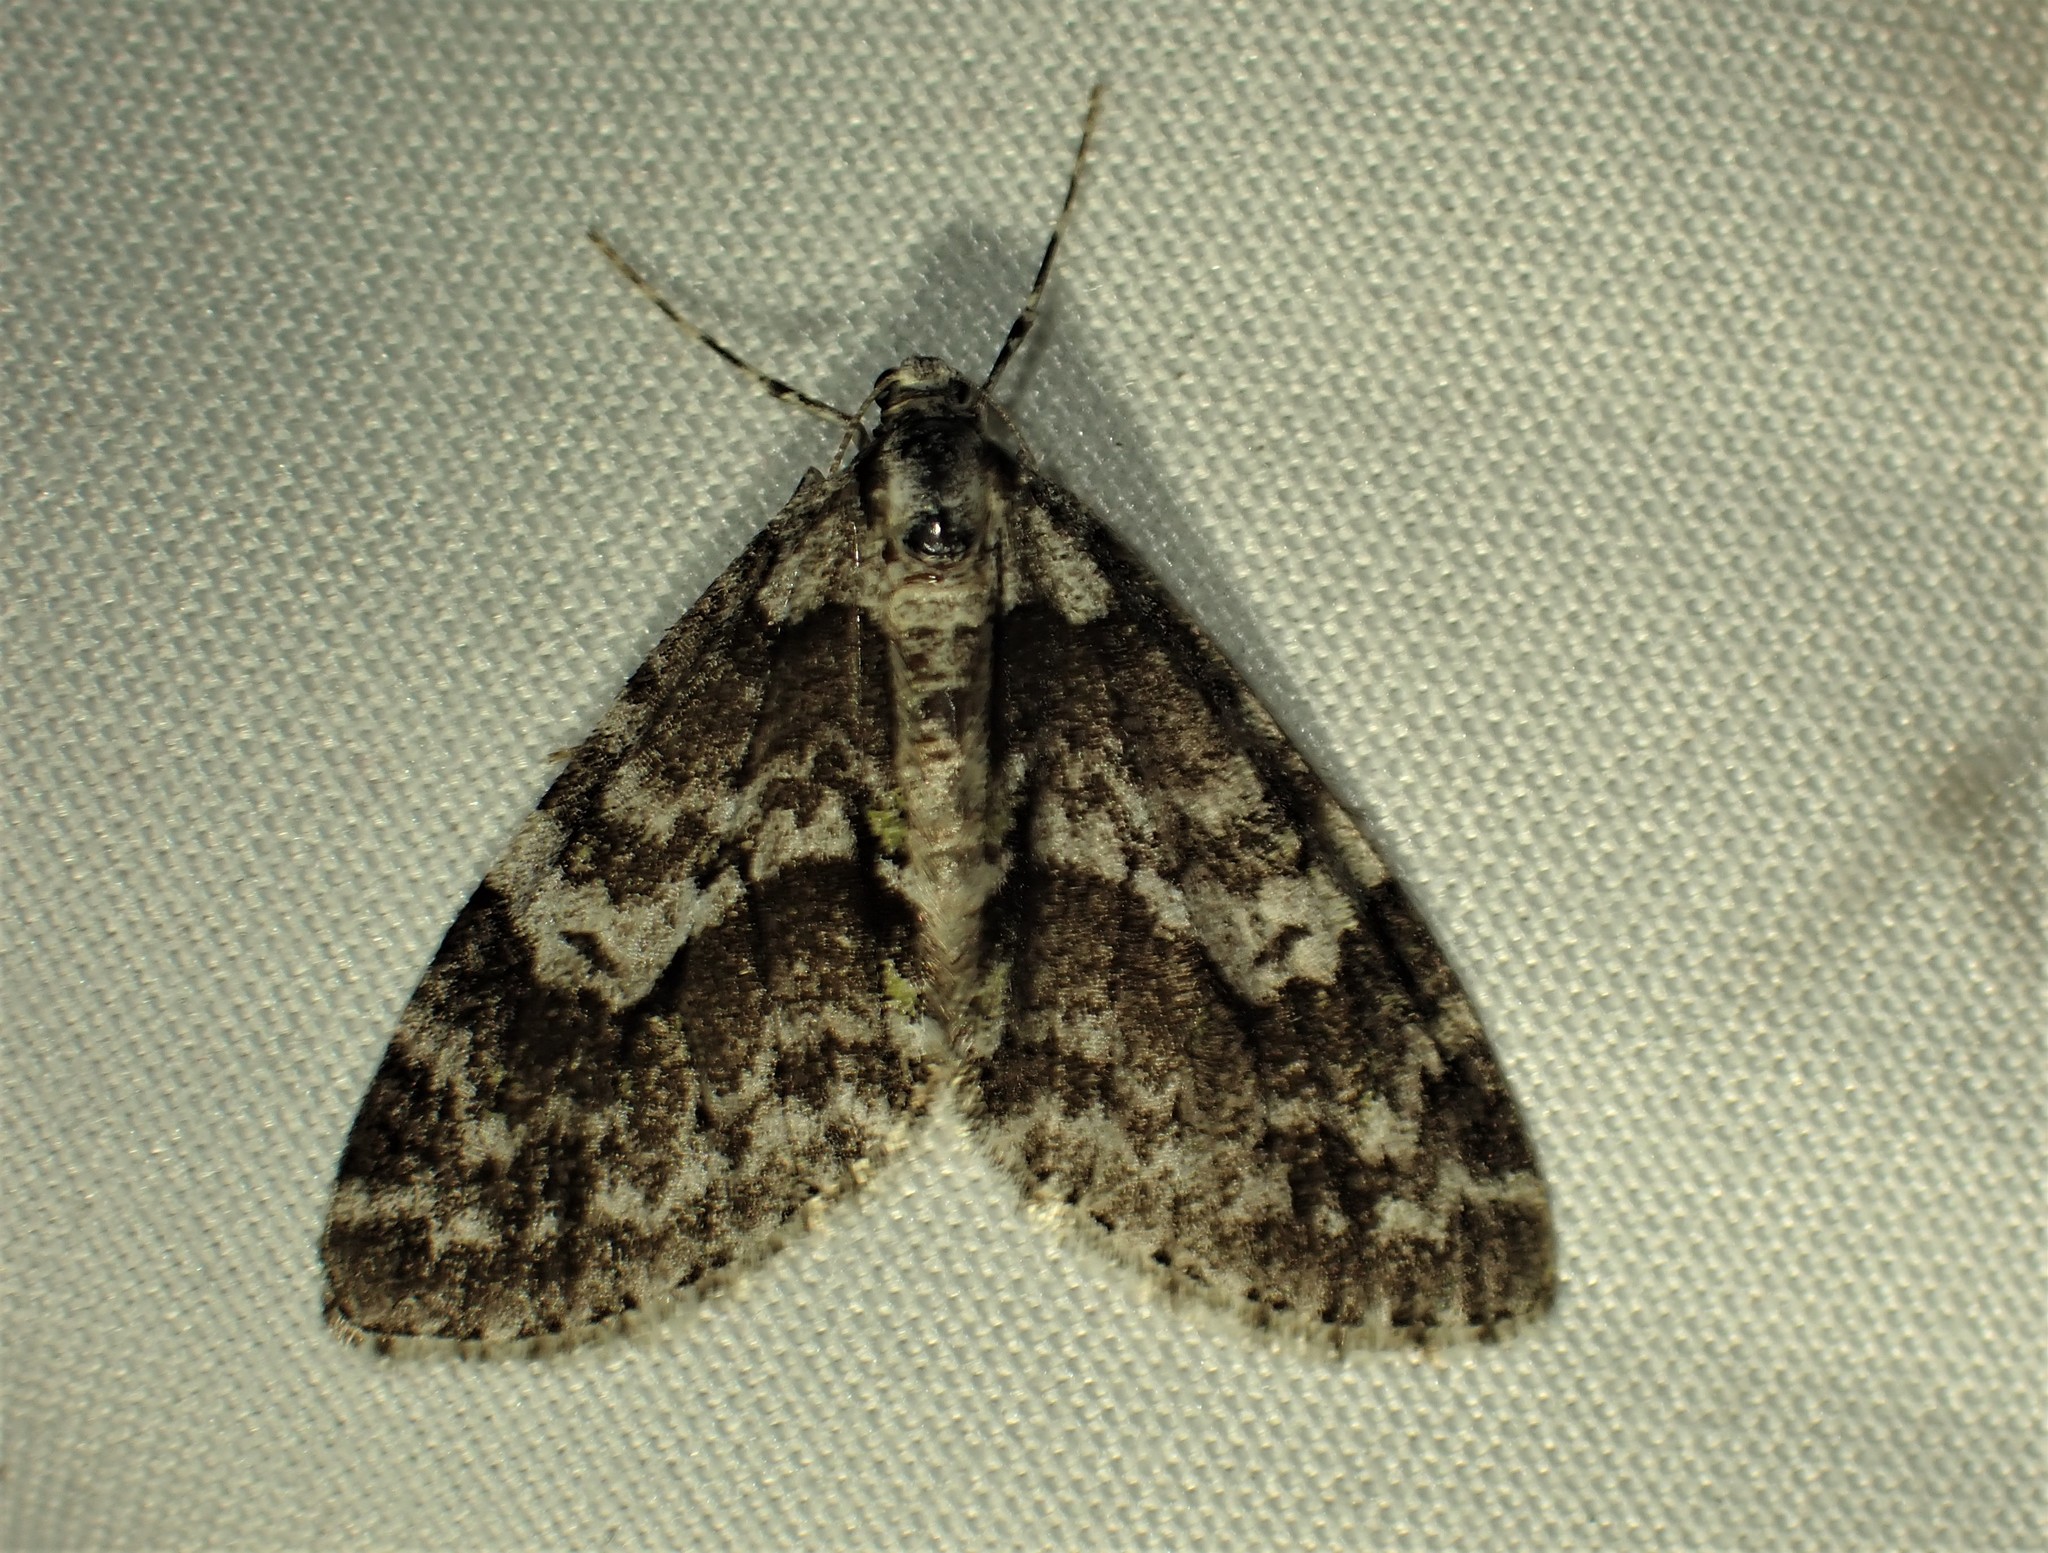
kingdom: Animalia
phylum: Arthropoda
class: Insecta
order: Lepidoptera
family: Geometridae
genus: Cladara
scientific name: Cladara limitaria
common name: Mottled gray carpet
